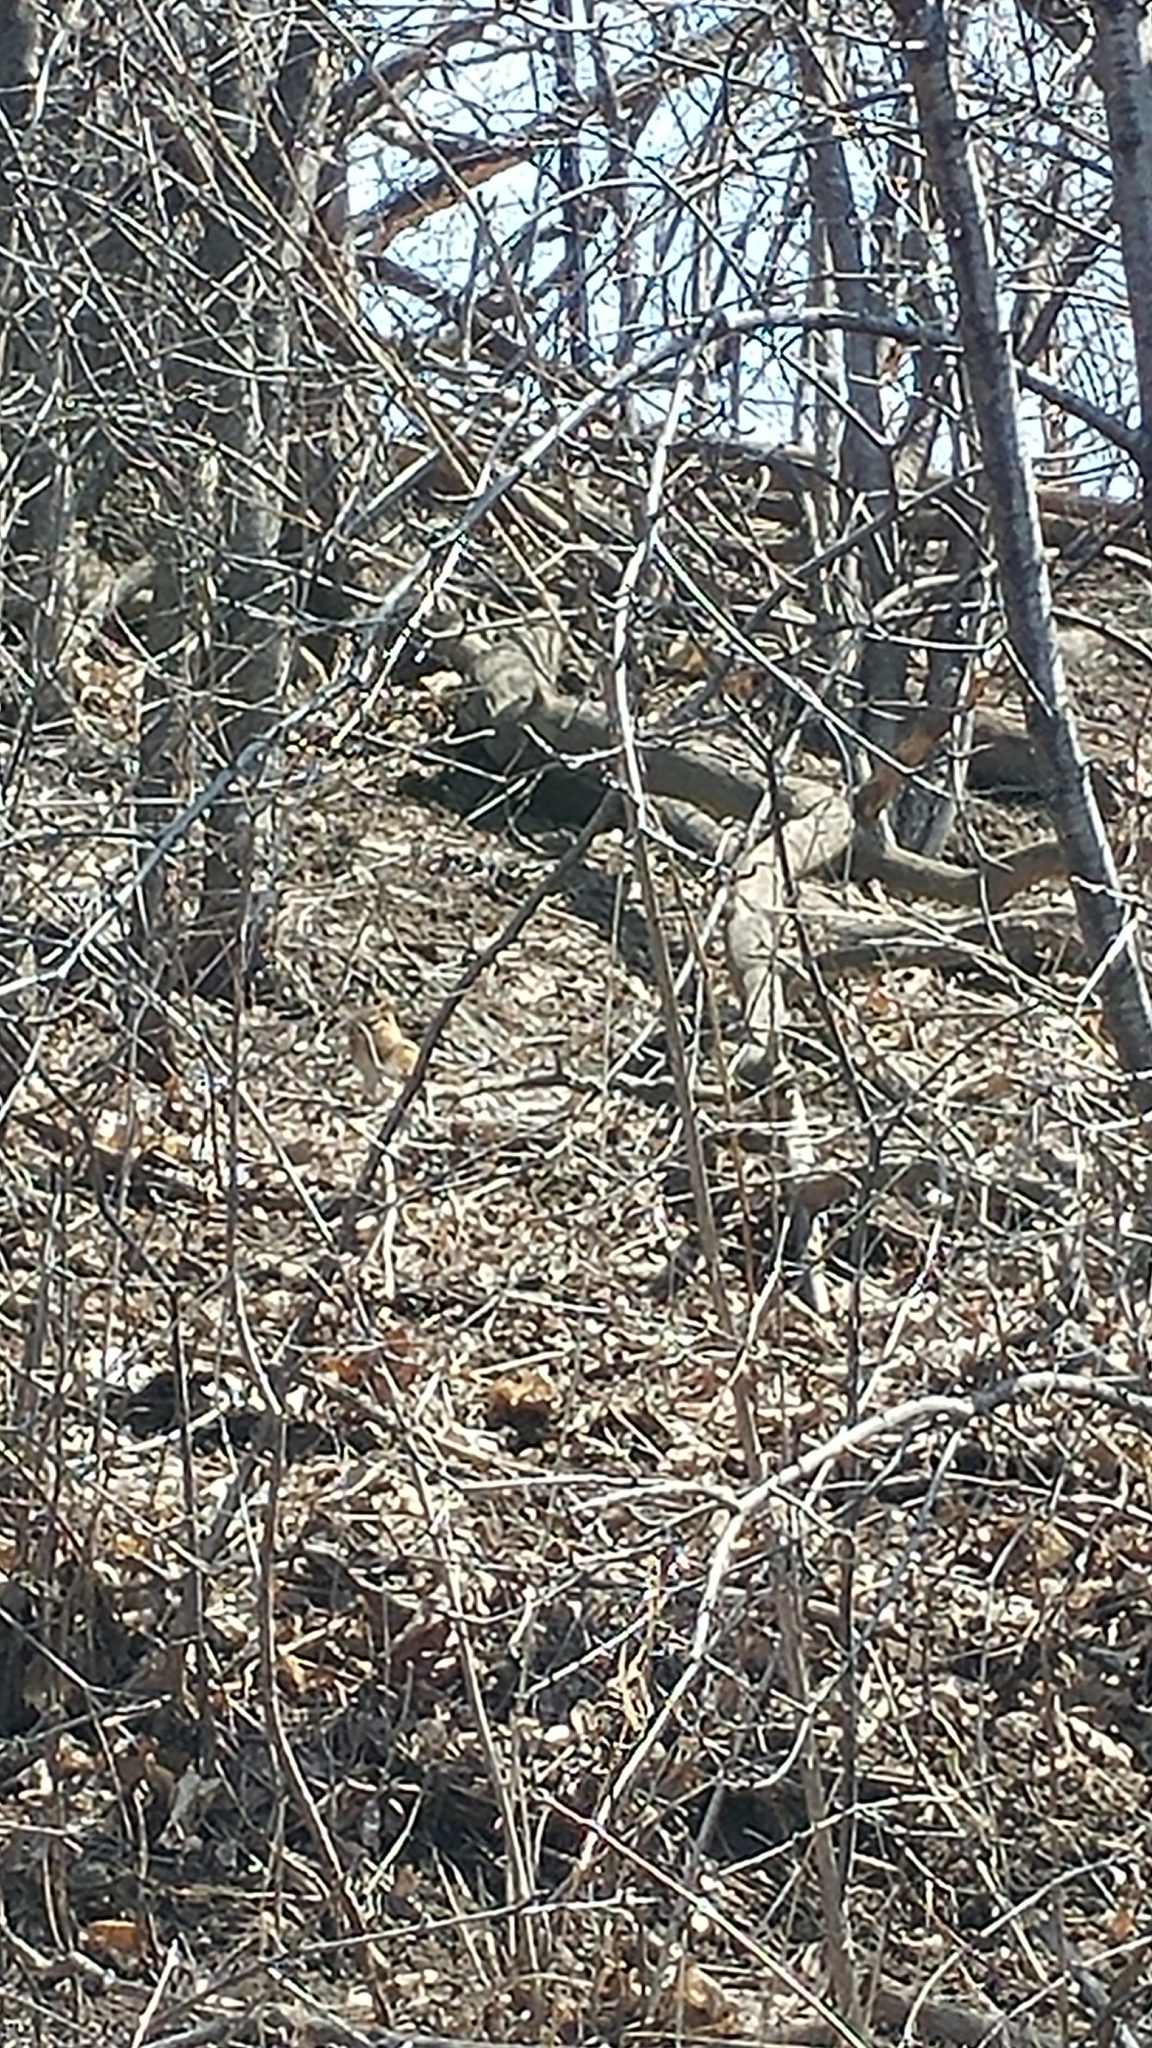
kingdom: Animalia
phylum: Chordata
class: Mammalia
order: Rodentia
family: Sciuridae
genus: Tamias
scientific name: Tamias striatus
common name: Eastern chipmunk
